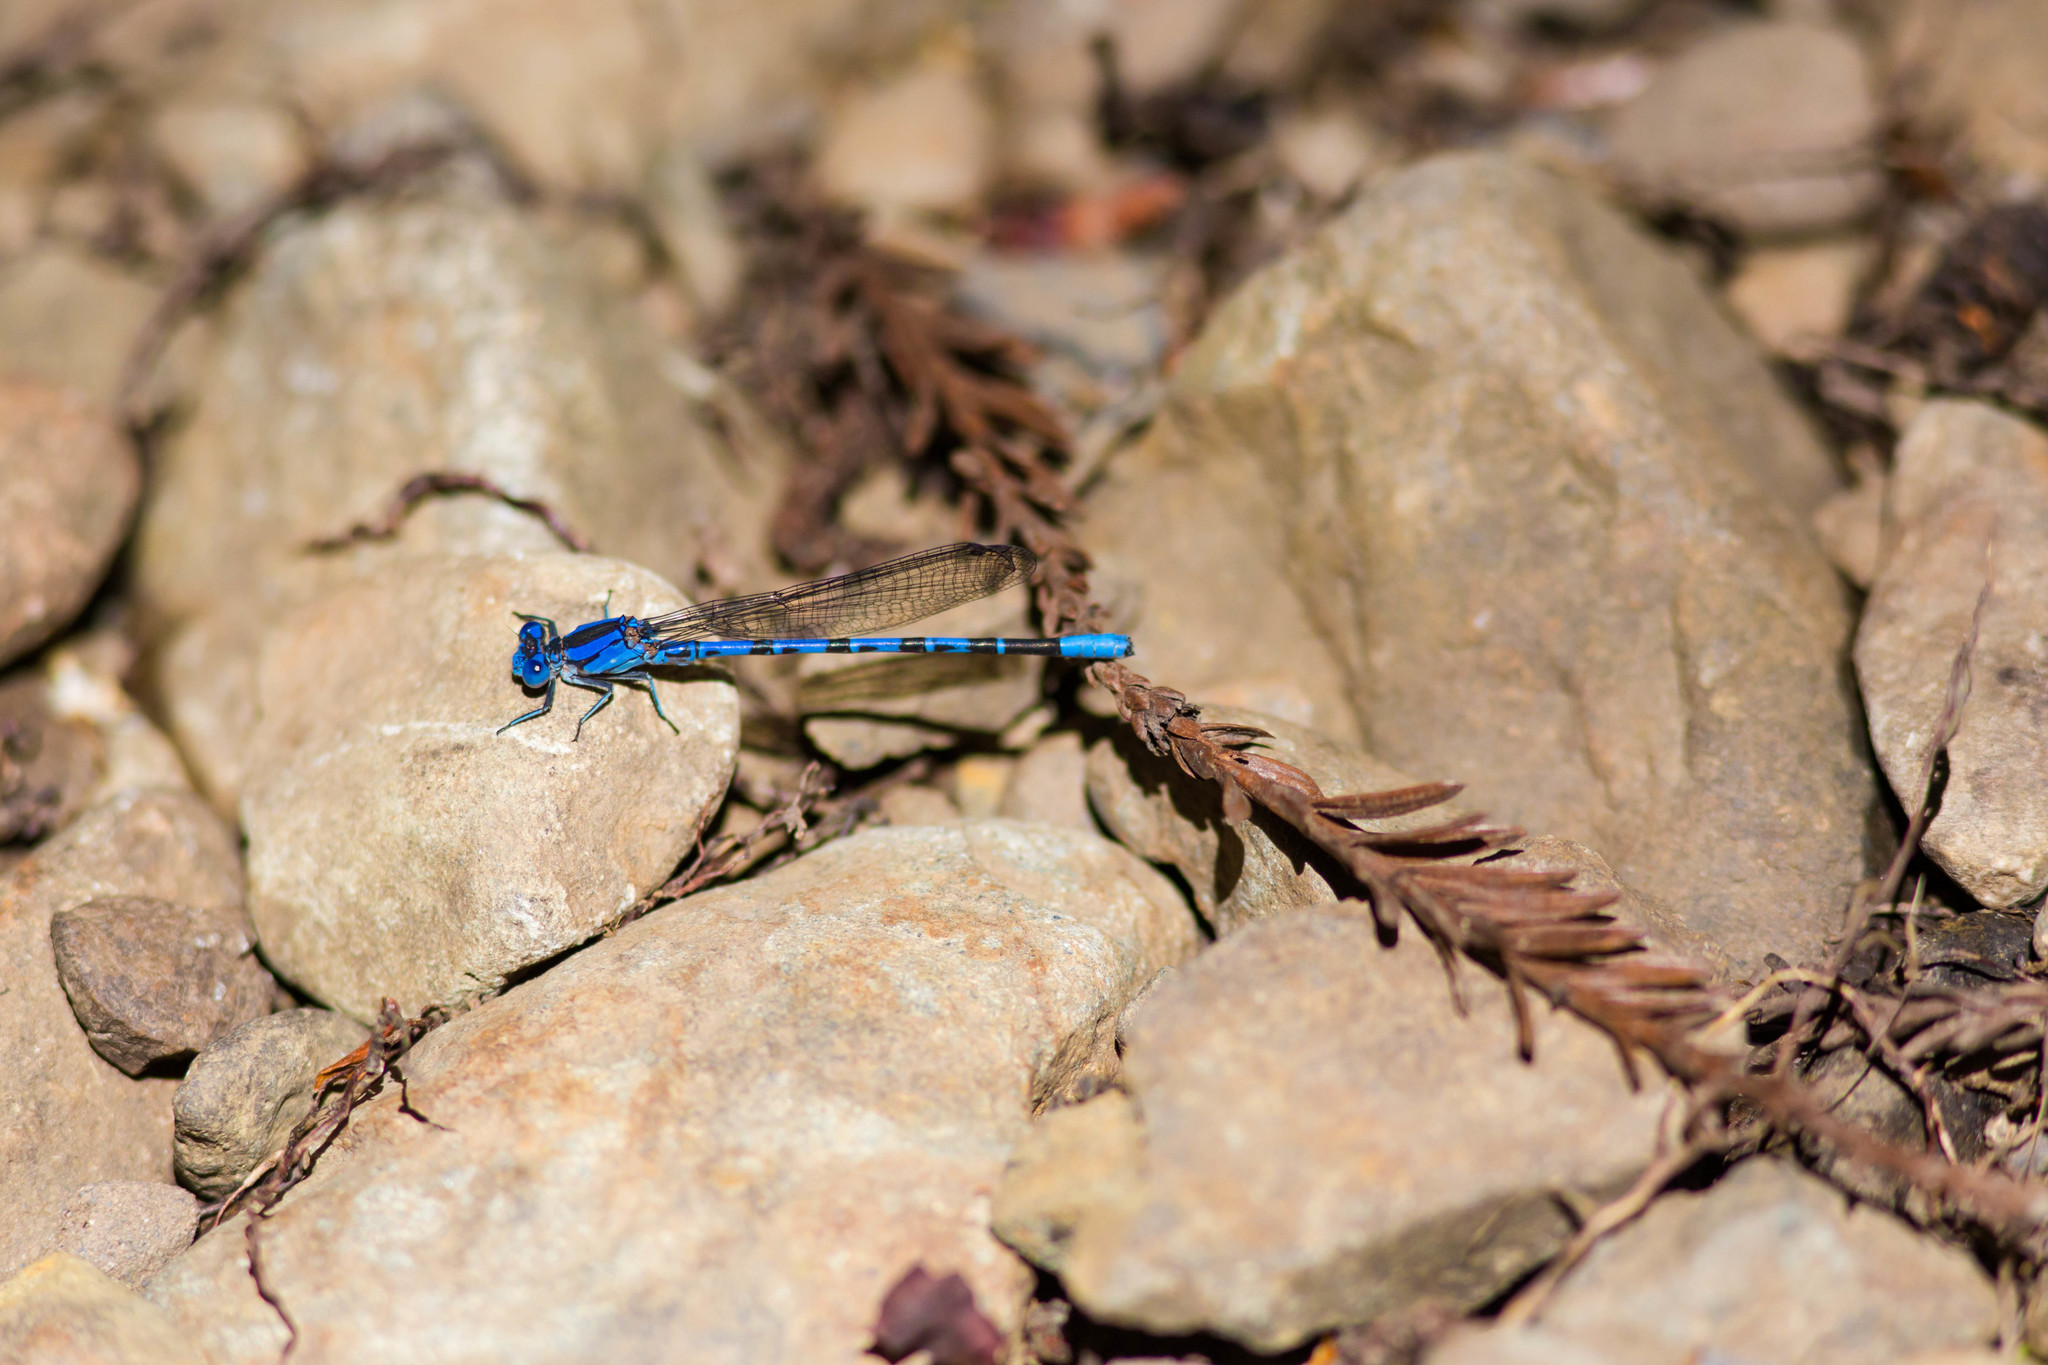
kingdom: Animalia
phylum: Arthropoda
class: Insecta
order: Odonata
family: Coenagrionidae
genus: Argia
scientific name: Argia vivida
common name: Vivid dancer
